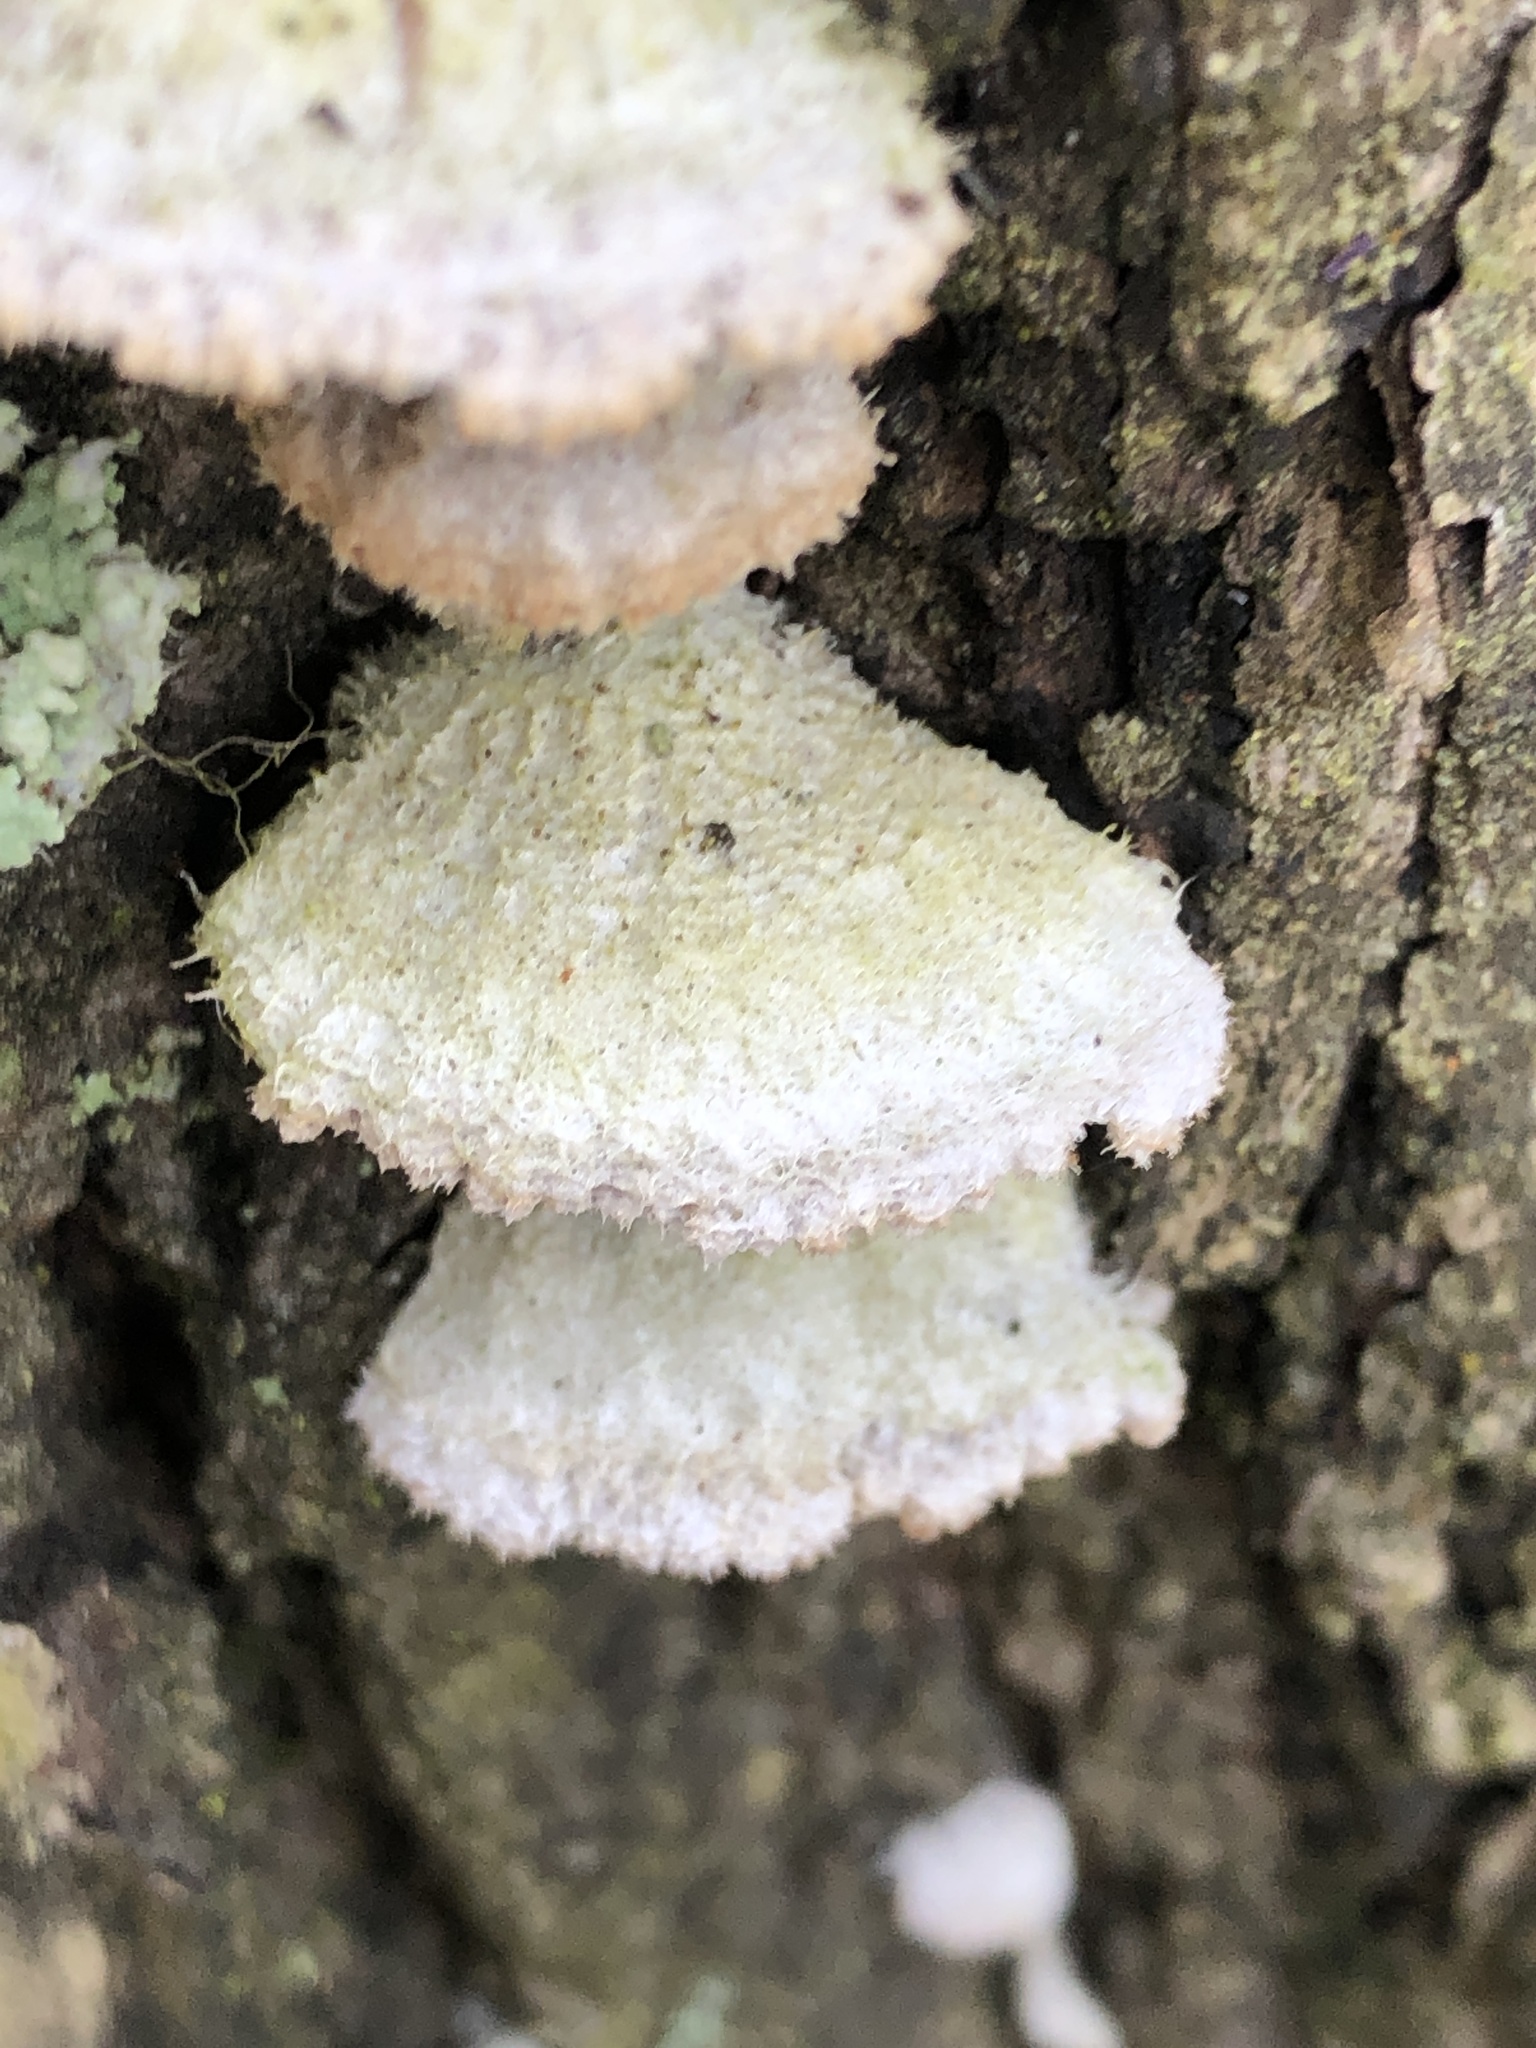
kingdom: Fungi
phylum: Basidiomycota
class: Agaricomycetes
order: Agaricales
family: Schizophyllaceae
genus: Schizophyllum
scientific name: Schizophyllum commune
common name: Common porecrust
